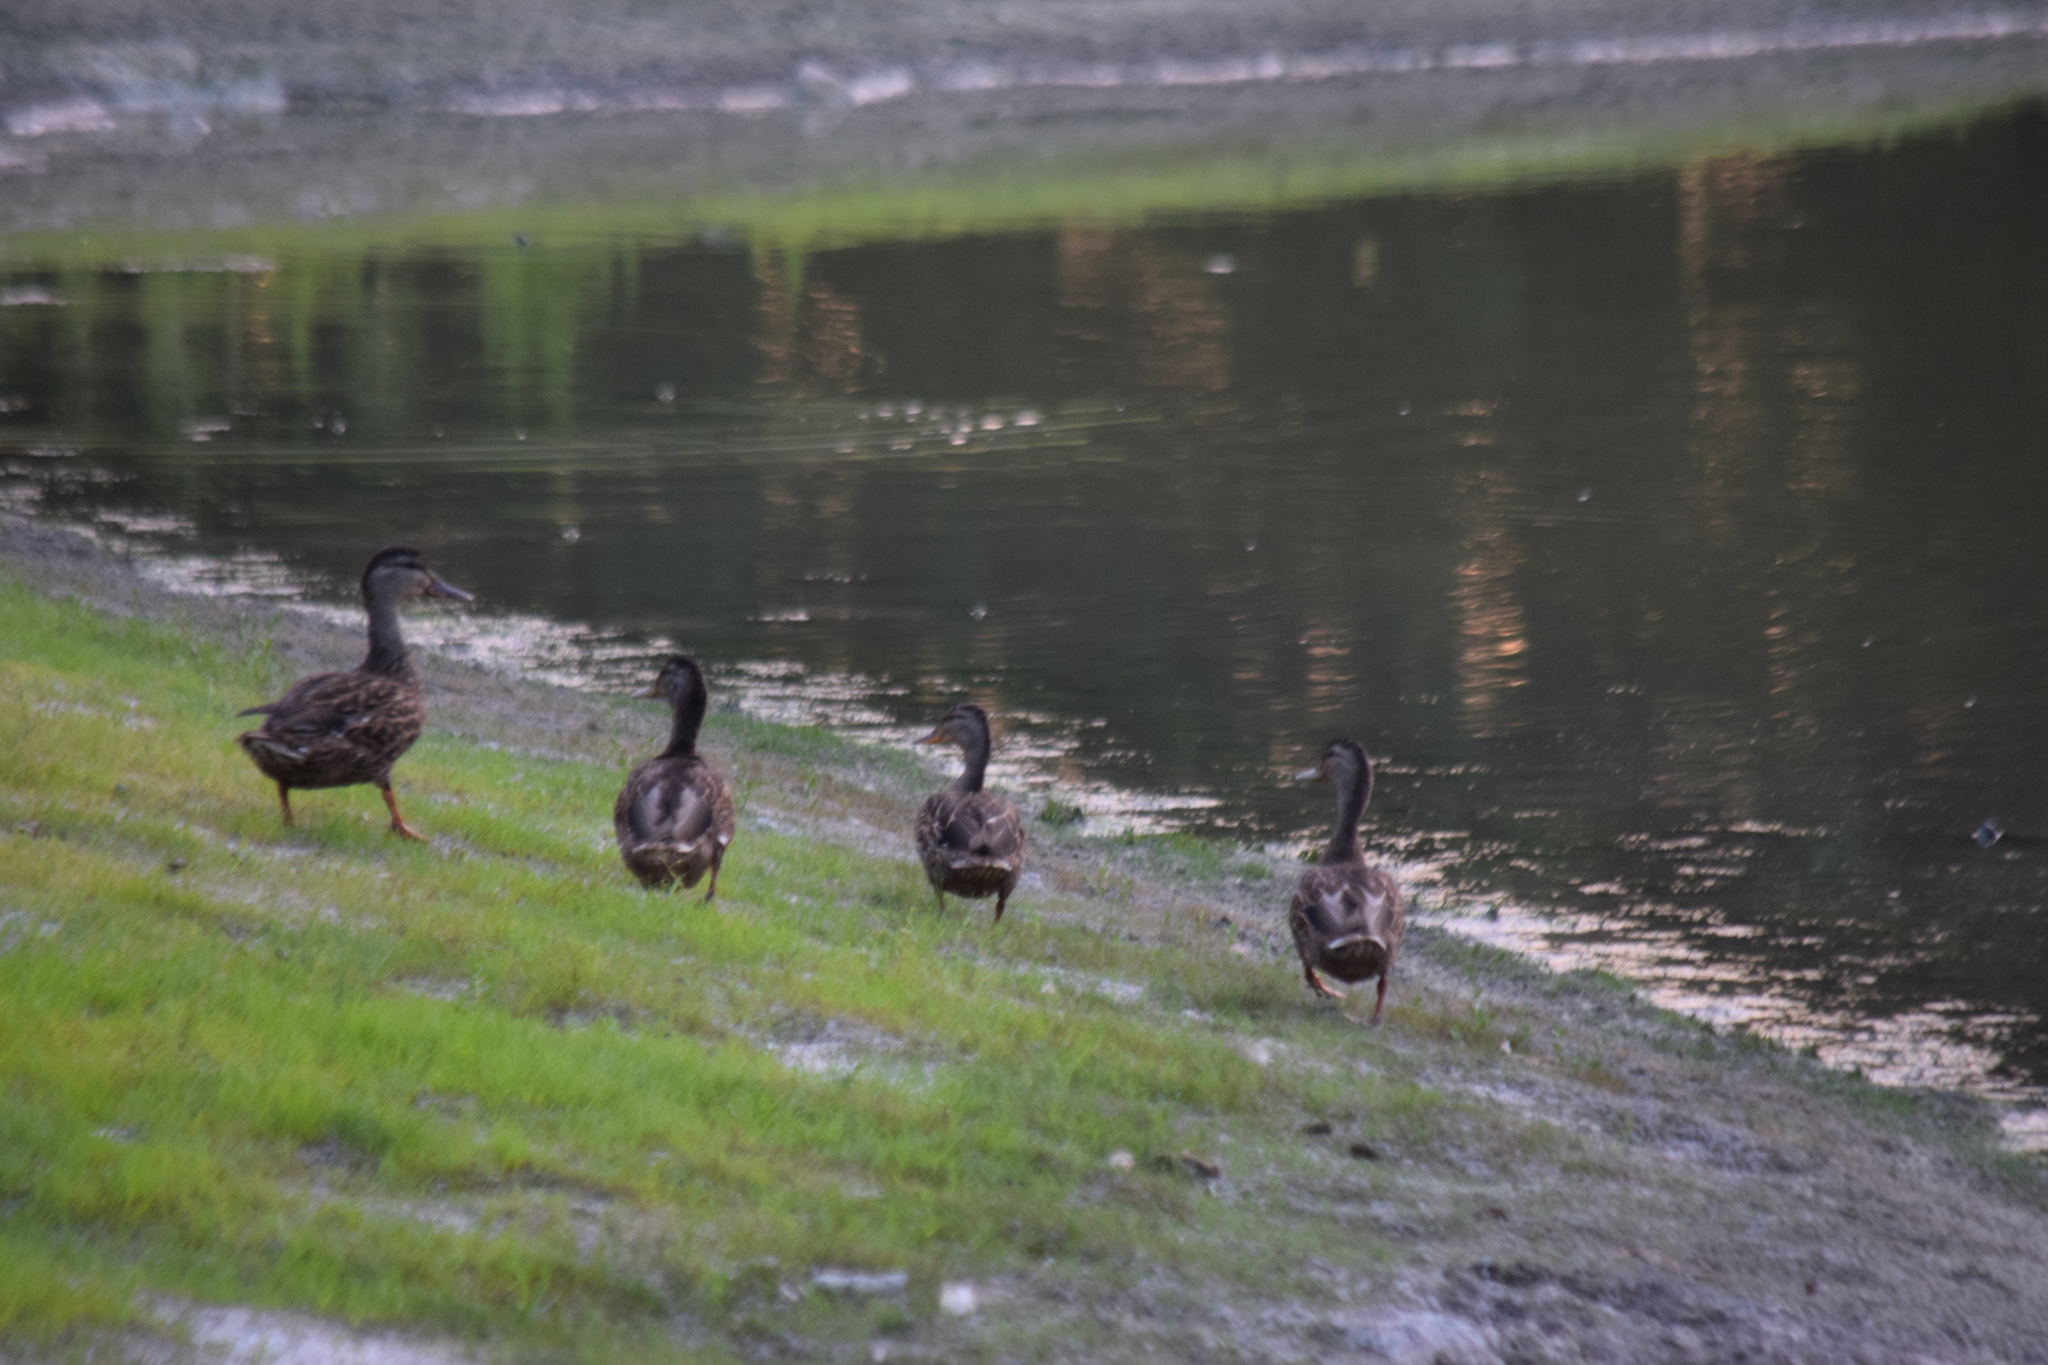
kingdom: Animalia
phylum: Chordata
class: Aves
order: Anseriformes
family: Anatidae
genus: Anas
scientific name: Anas platyrhynchos
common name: Mallard
